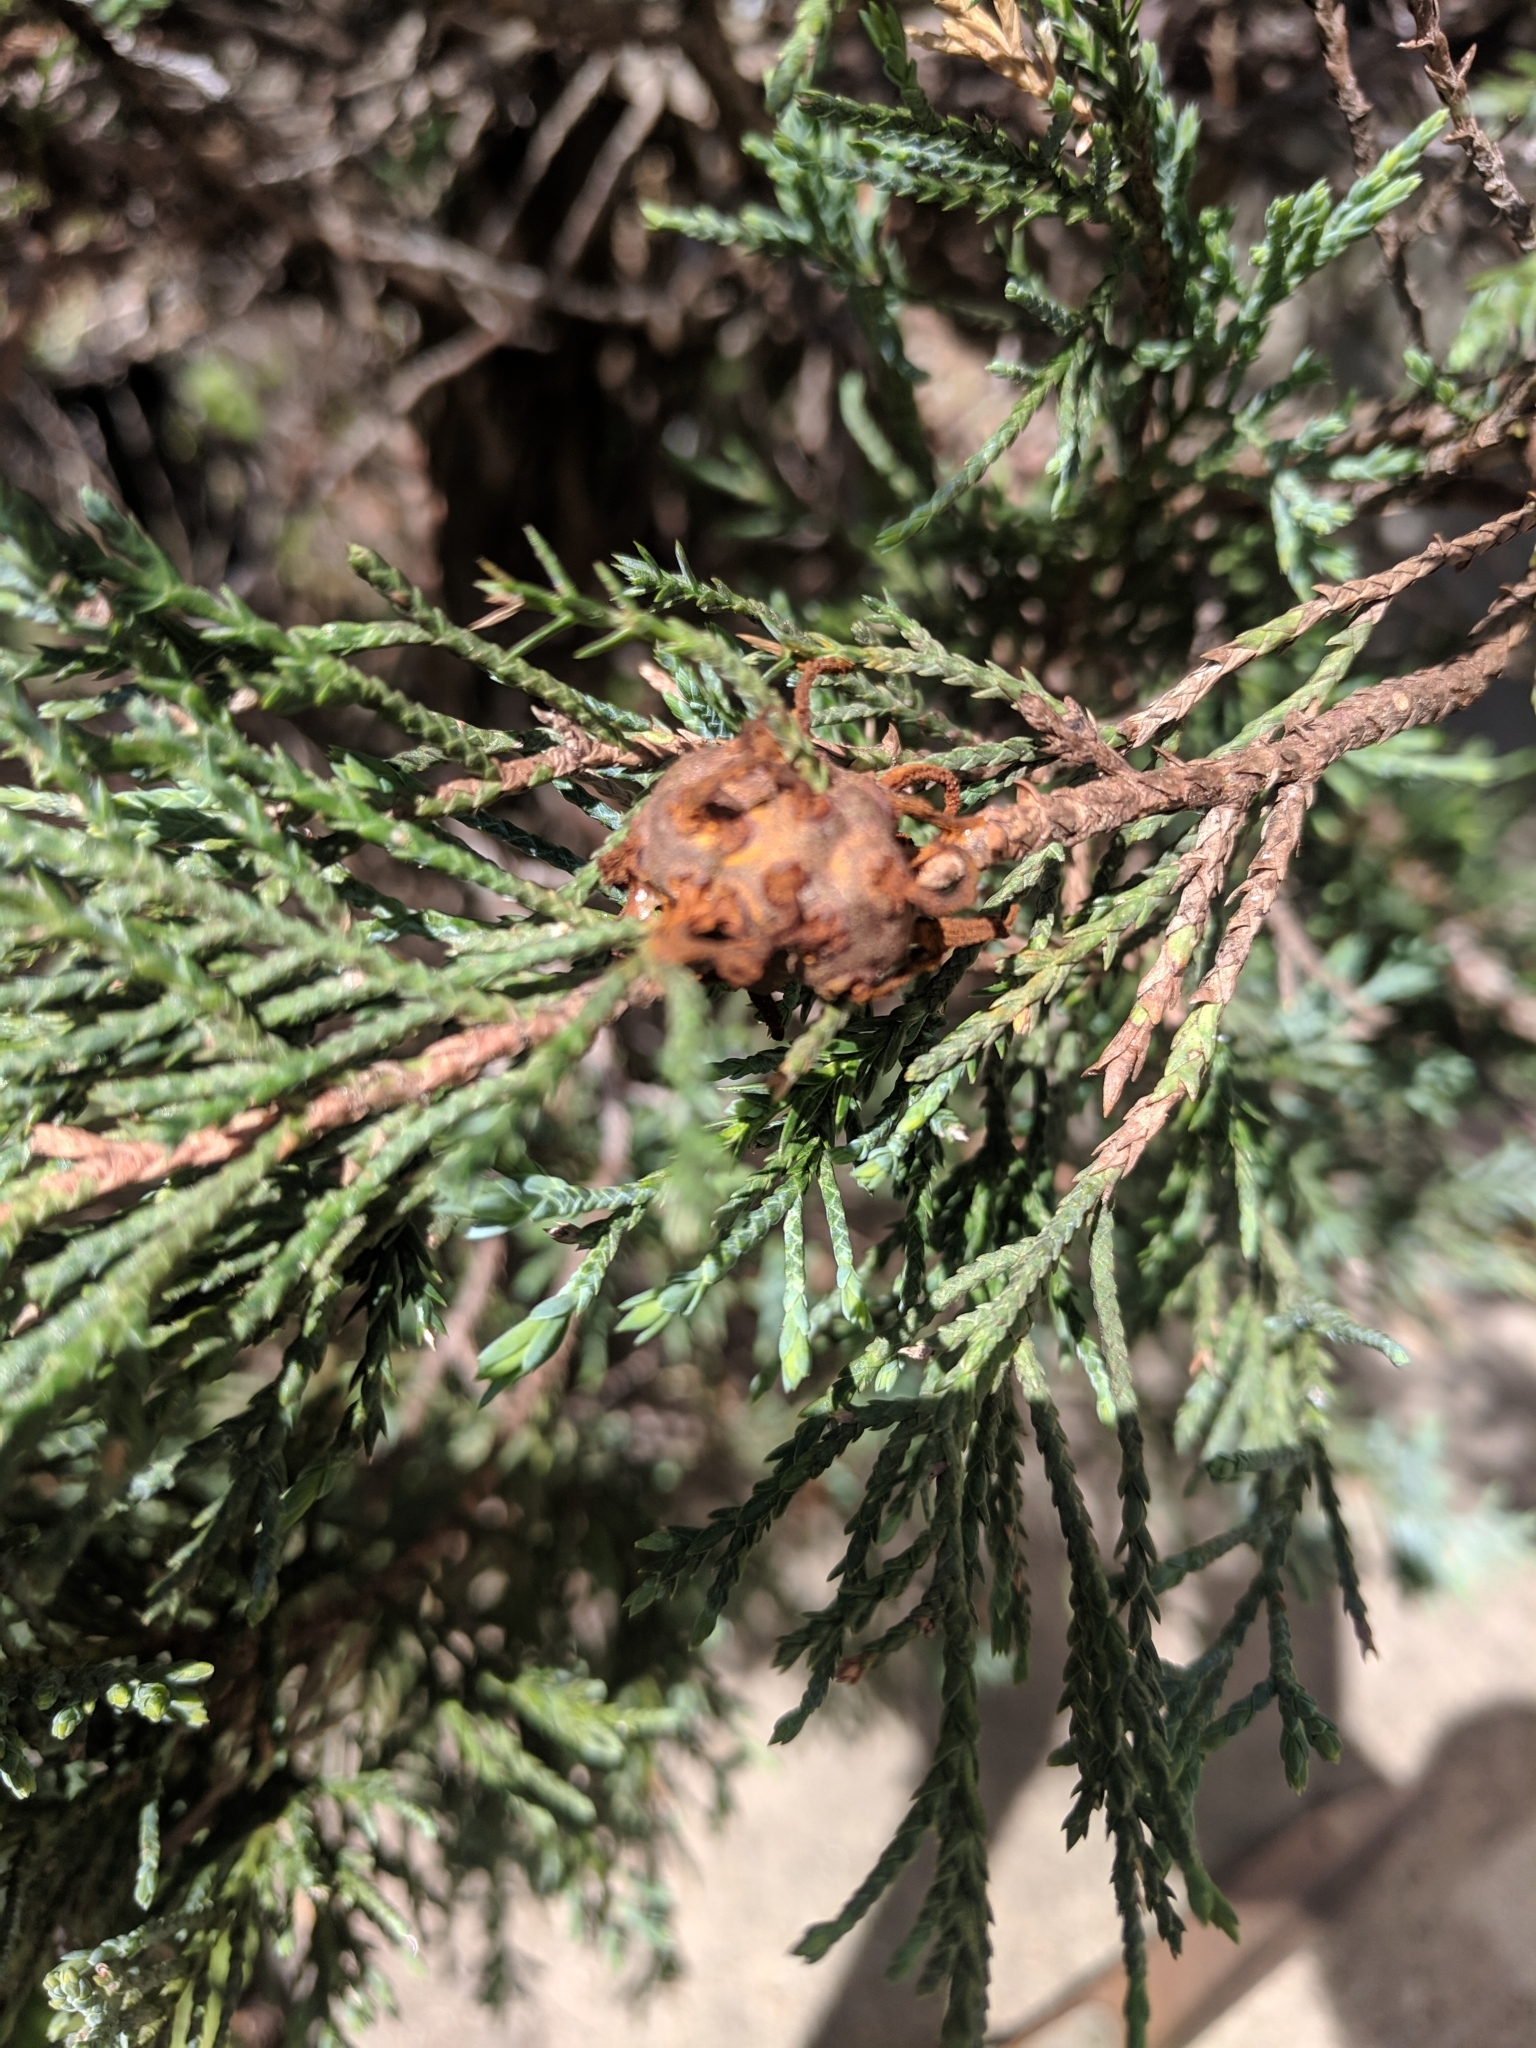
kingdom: Fungi
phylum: Basidiomycota
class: Pucciniomycetes
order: Pucciniales
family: Gymnosporangiaceae
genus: Gymnosporangium
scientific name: Gymnosporangium juniperi-virginianae
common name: Juniper-apple rust
